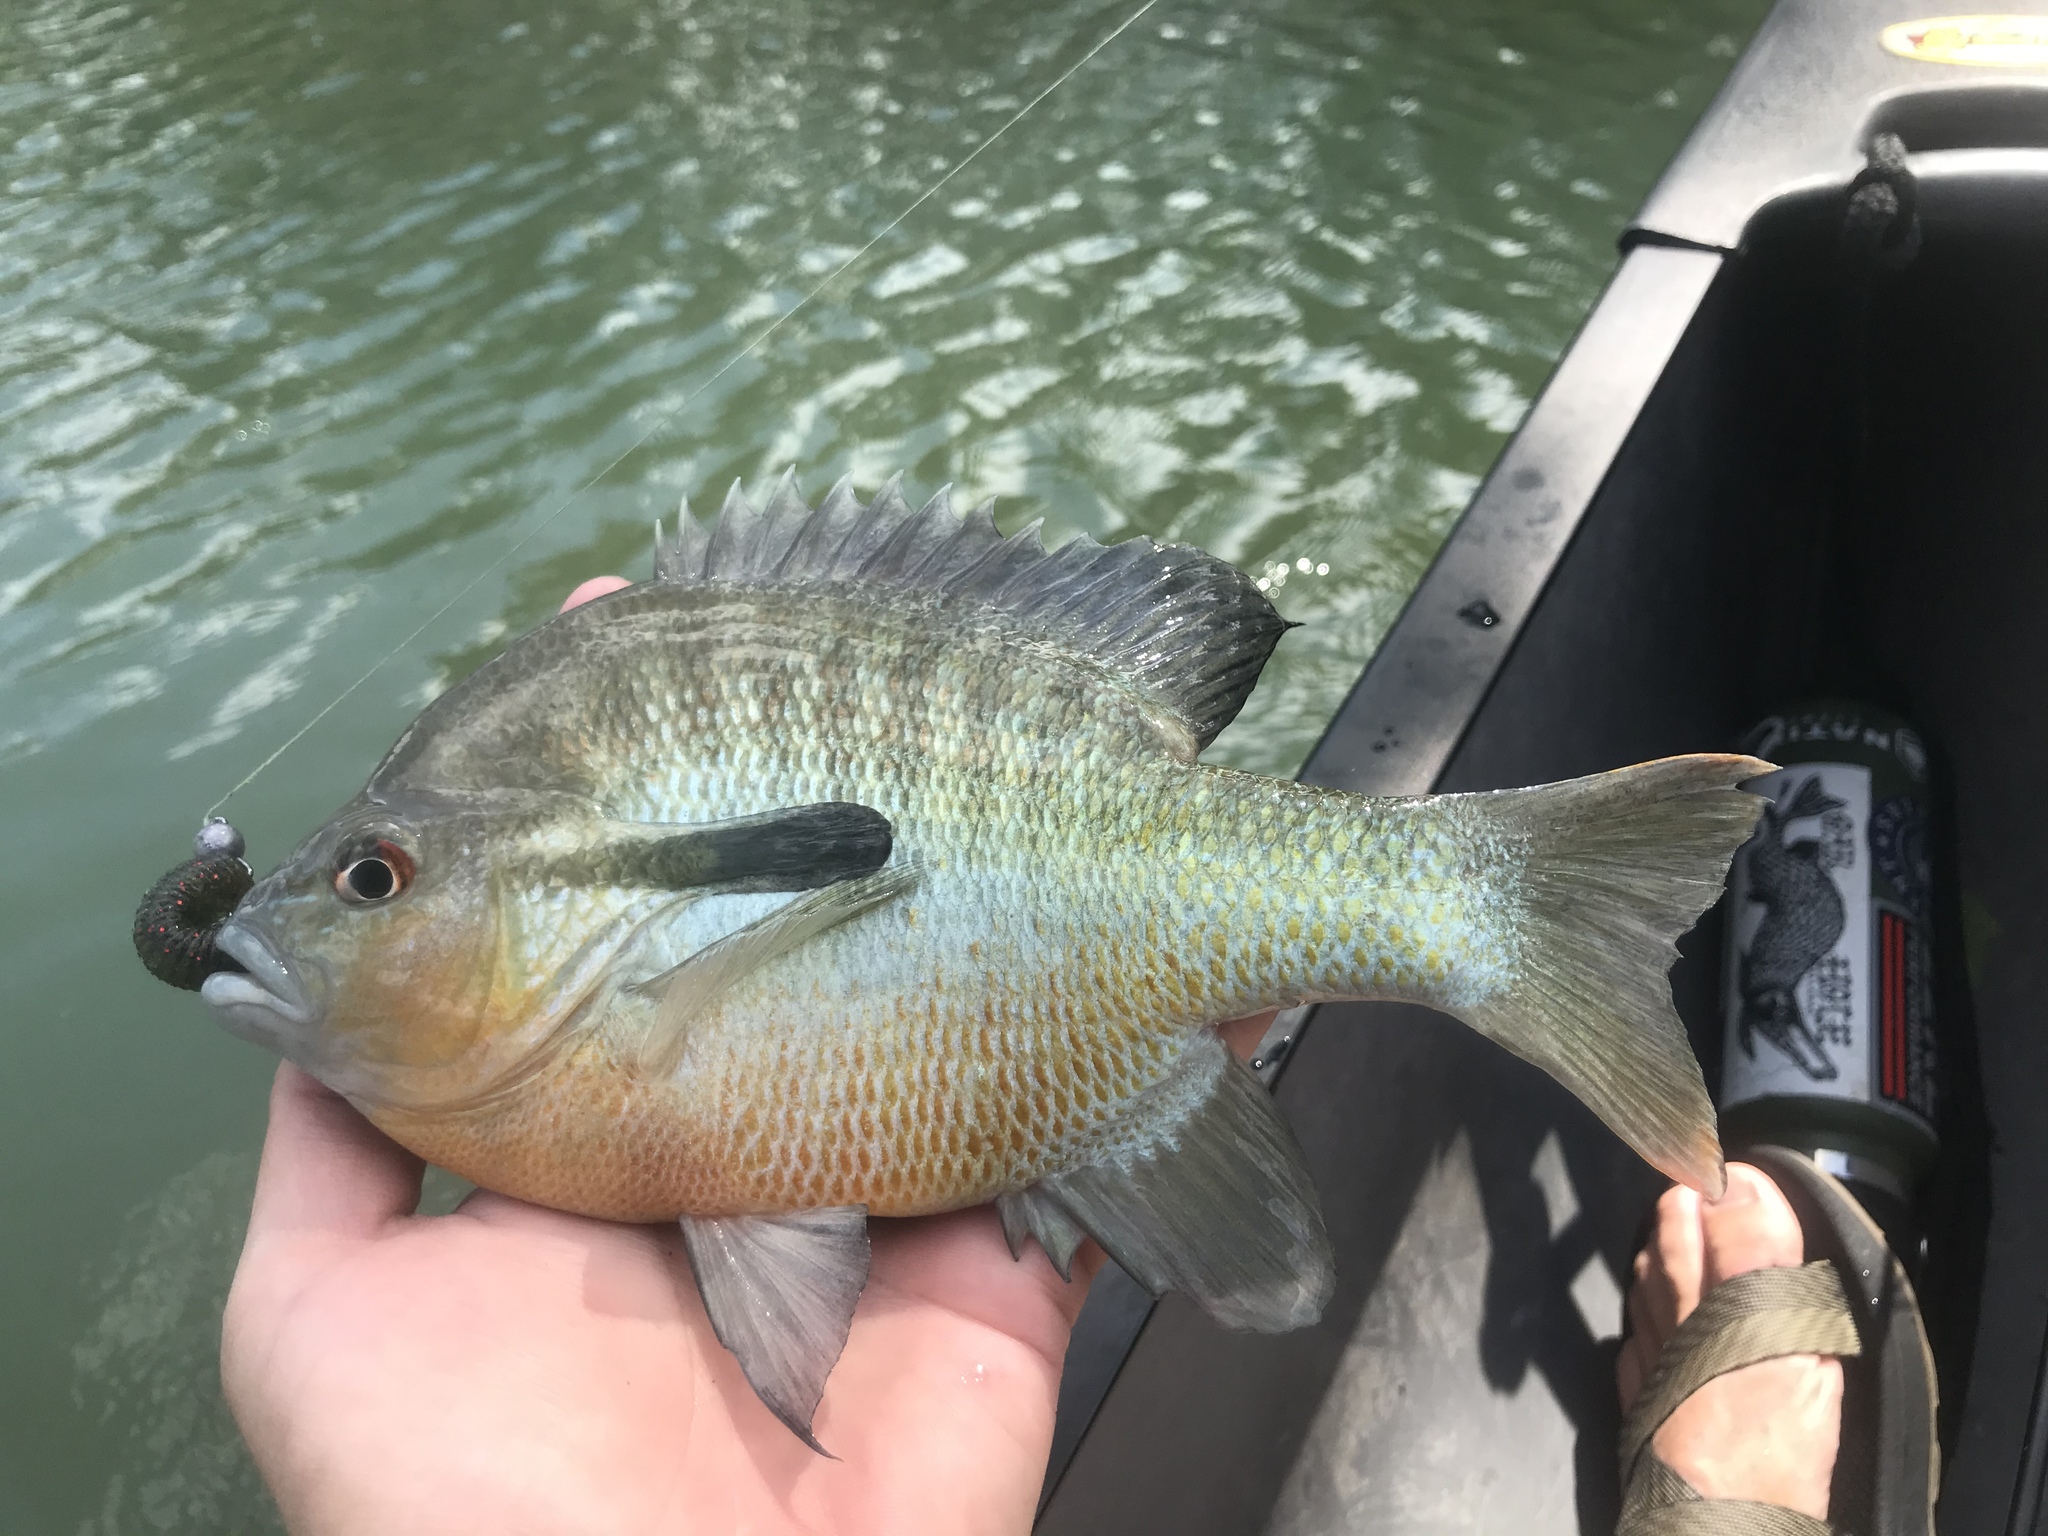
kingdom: Animalia
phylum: Chordata
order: Perciformes
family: Centrarchidae
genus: Lepomis
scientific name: Lepomis auritus
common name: Redbreast sunfish
